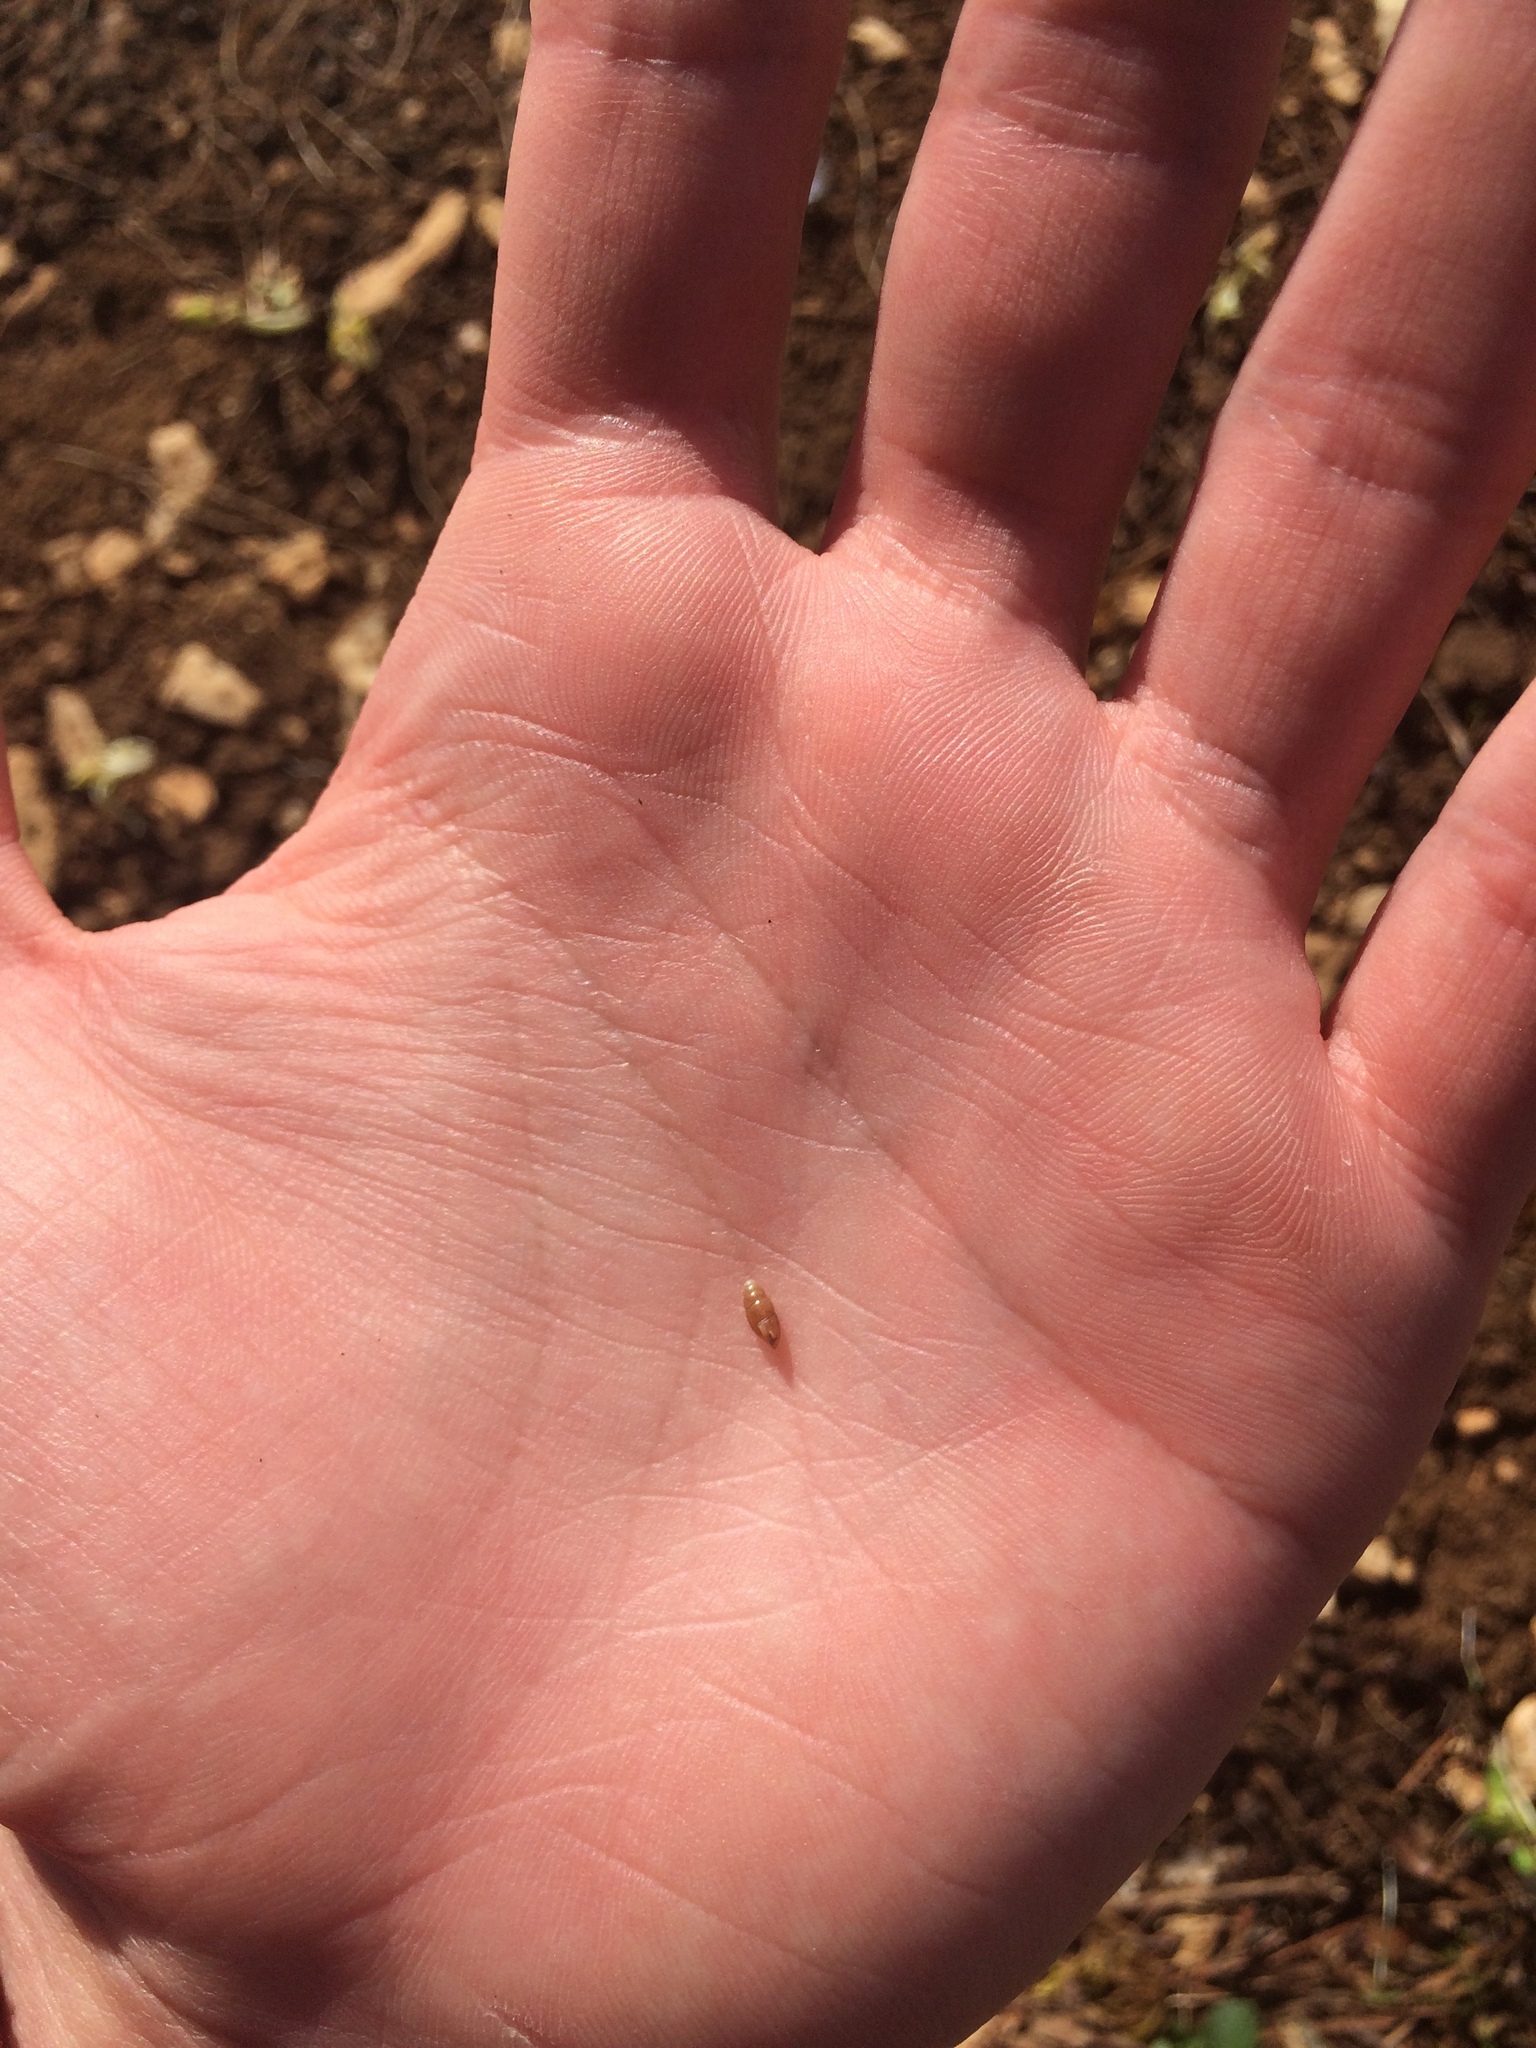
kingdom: Animalia
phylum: Mollusca
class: Gastropoda
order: Stylommatophora
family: Cochlicopidae
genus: Cochlicopa
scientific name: Cochlicopa lubrica
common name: Glossy pillar snail
